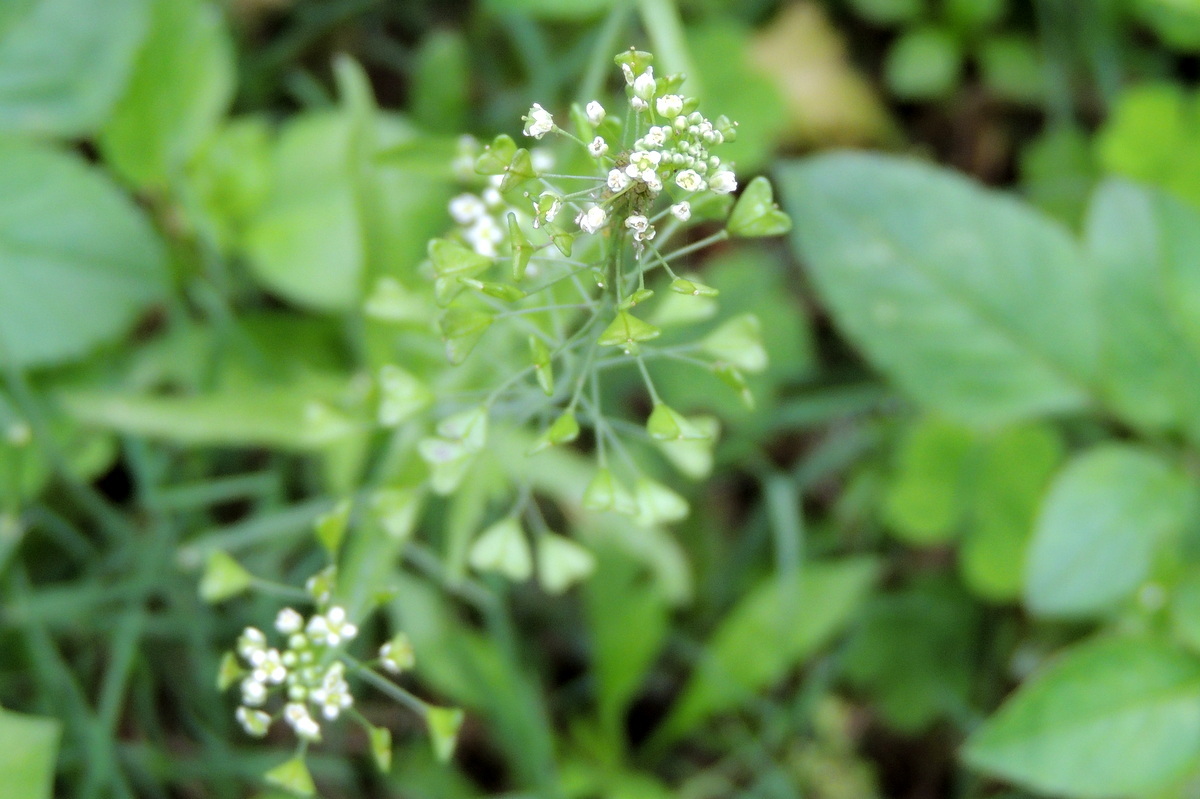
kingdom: Plantae
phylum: Tracheophyta
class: Magnoliopsida
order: Brassicales
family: Brassicaceae
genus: Capsella
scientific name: Capsella bursa-pastoris
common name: Shepherd's purse
